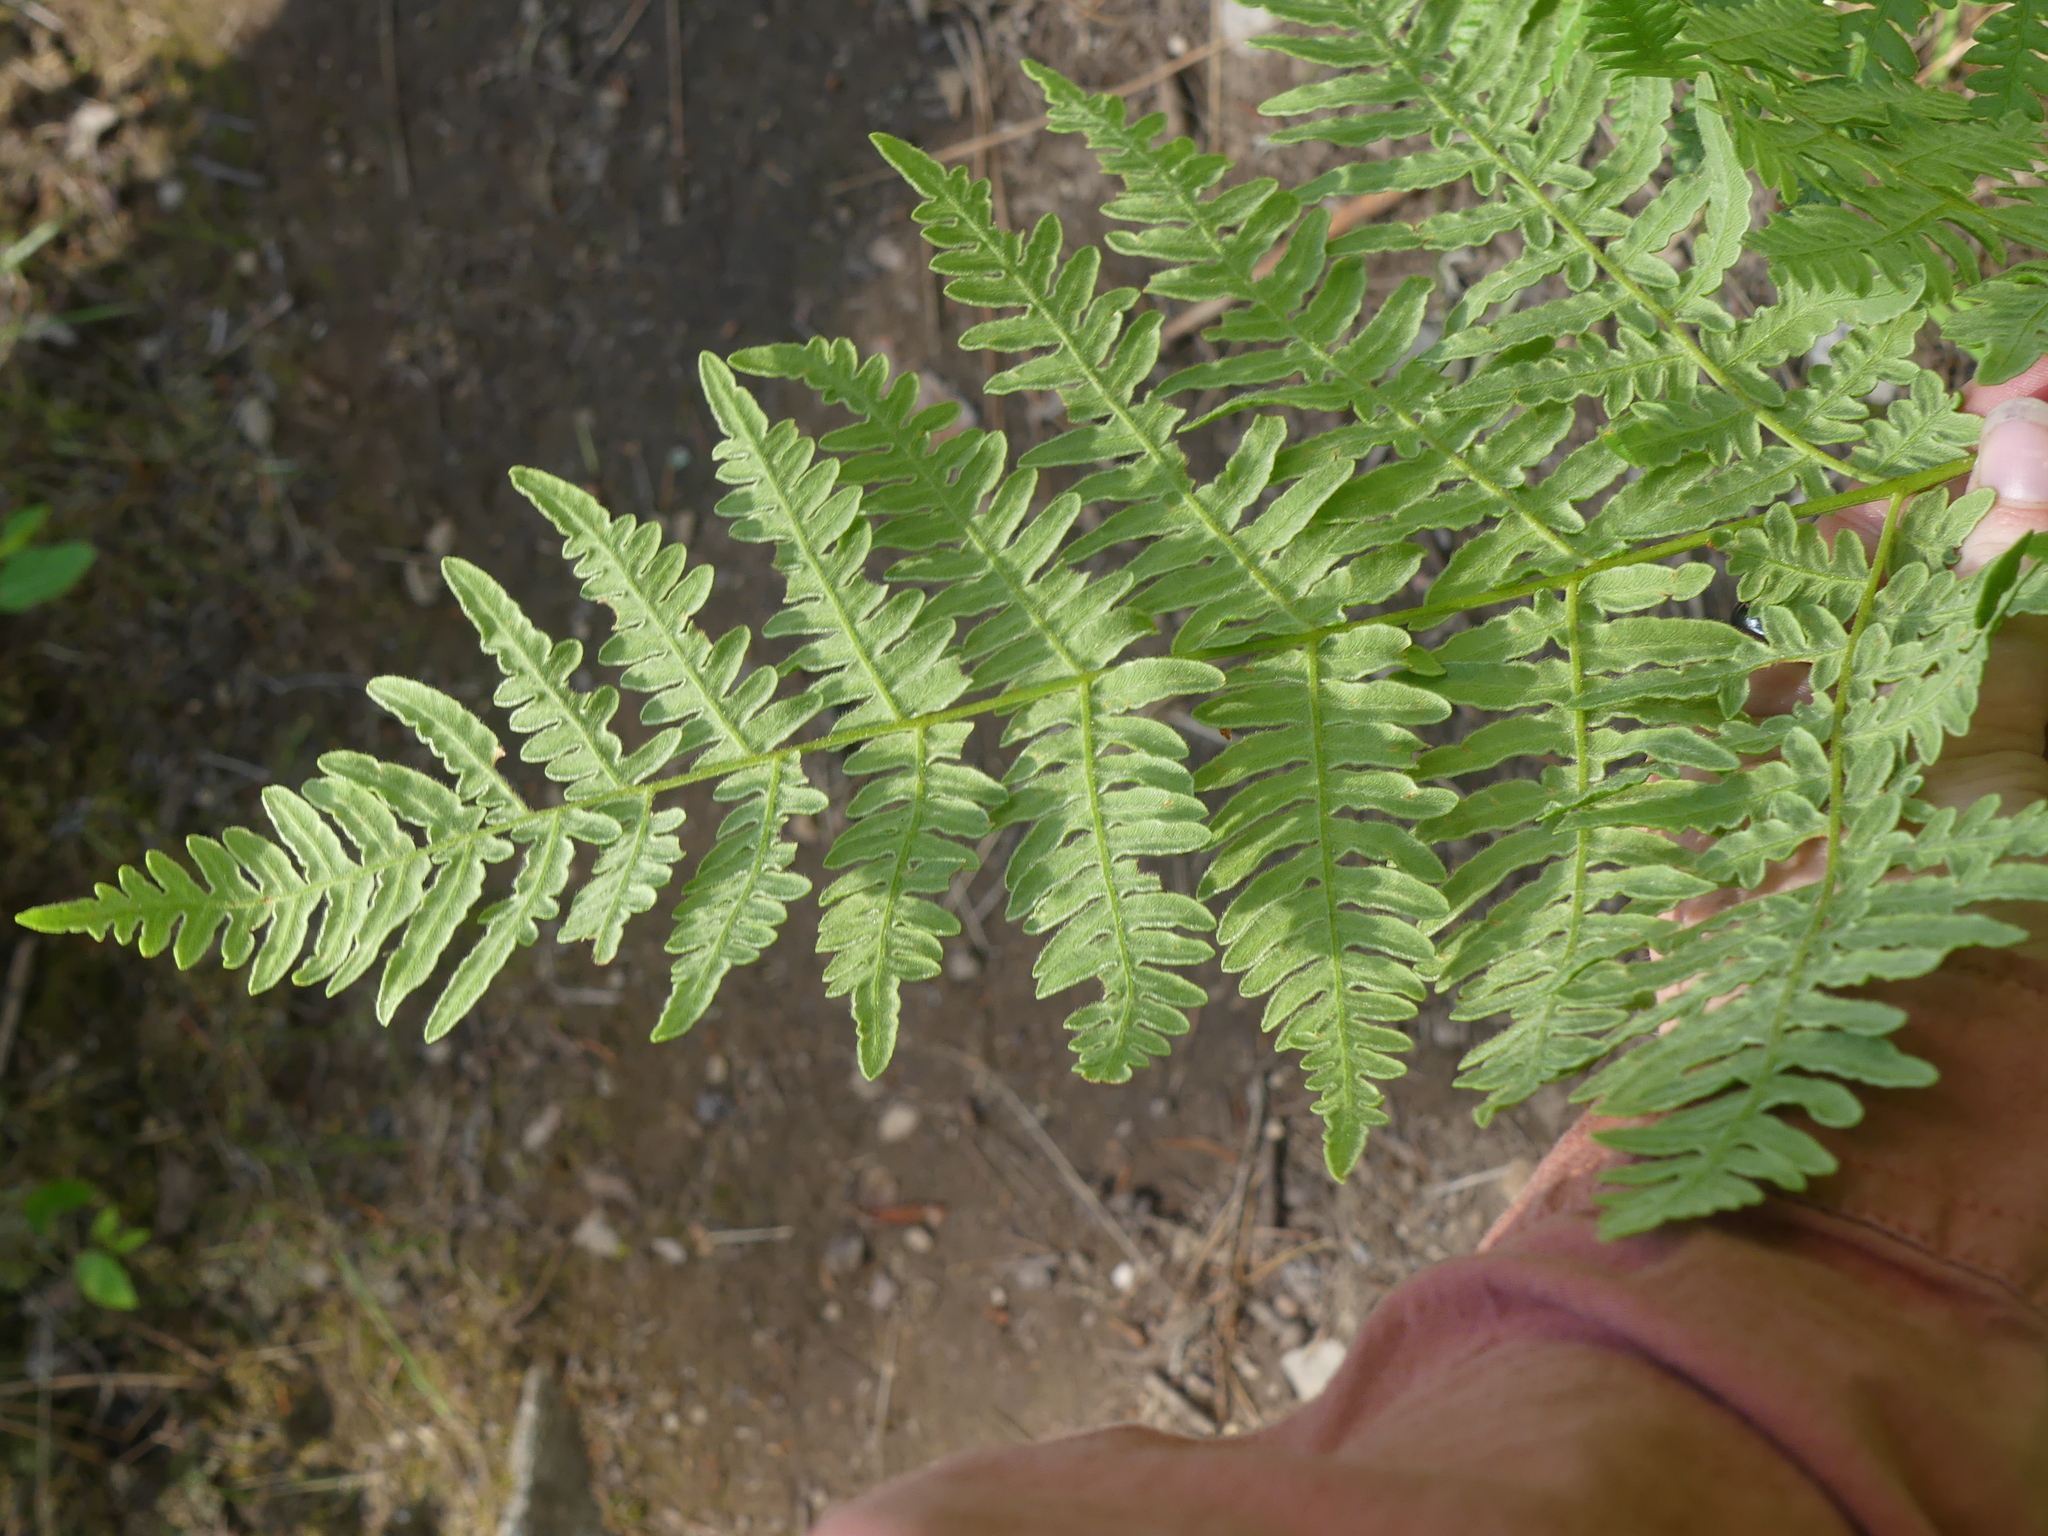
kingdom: Plantae
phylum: Tracheophyta
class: Polypodiopsida
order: Polypodiales
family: Dennstaedtiaceae
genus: Pteridium
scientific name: Pteridium aquilinum
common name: Bracken
